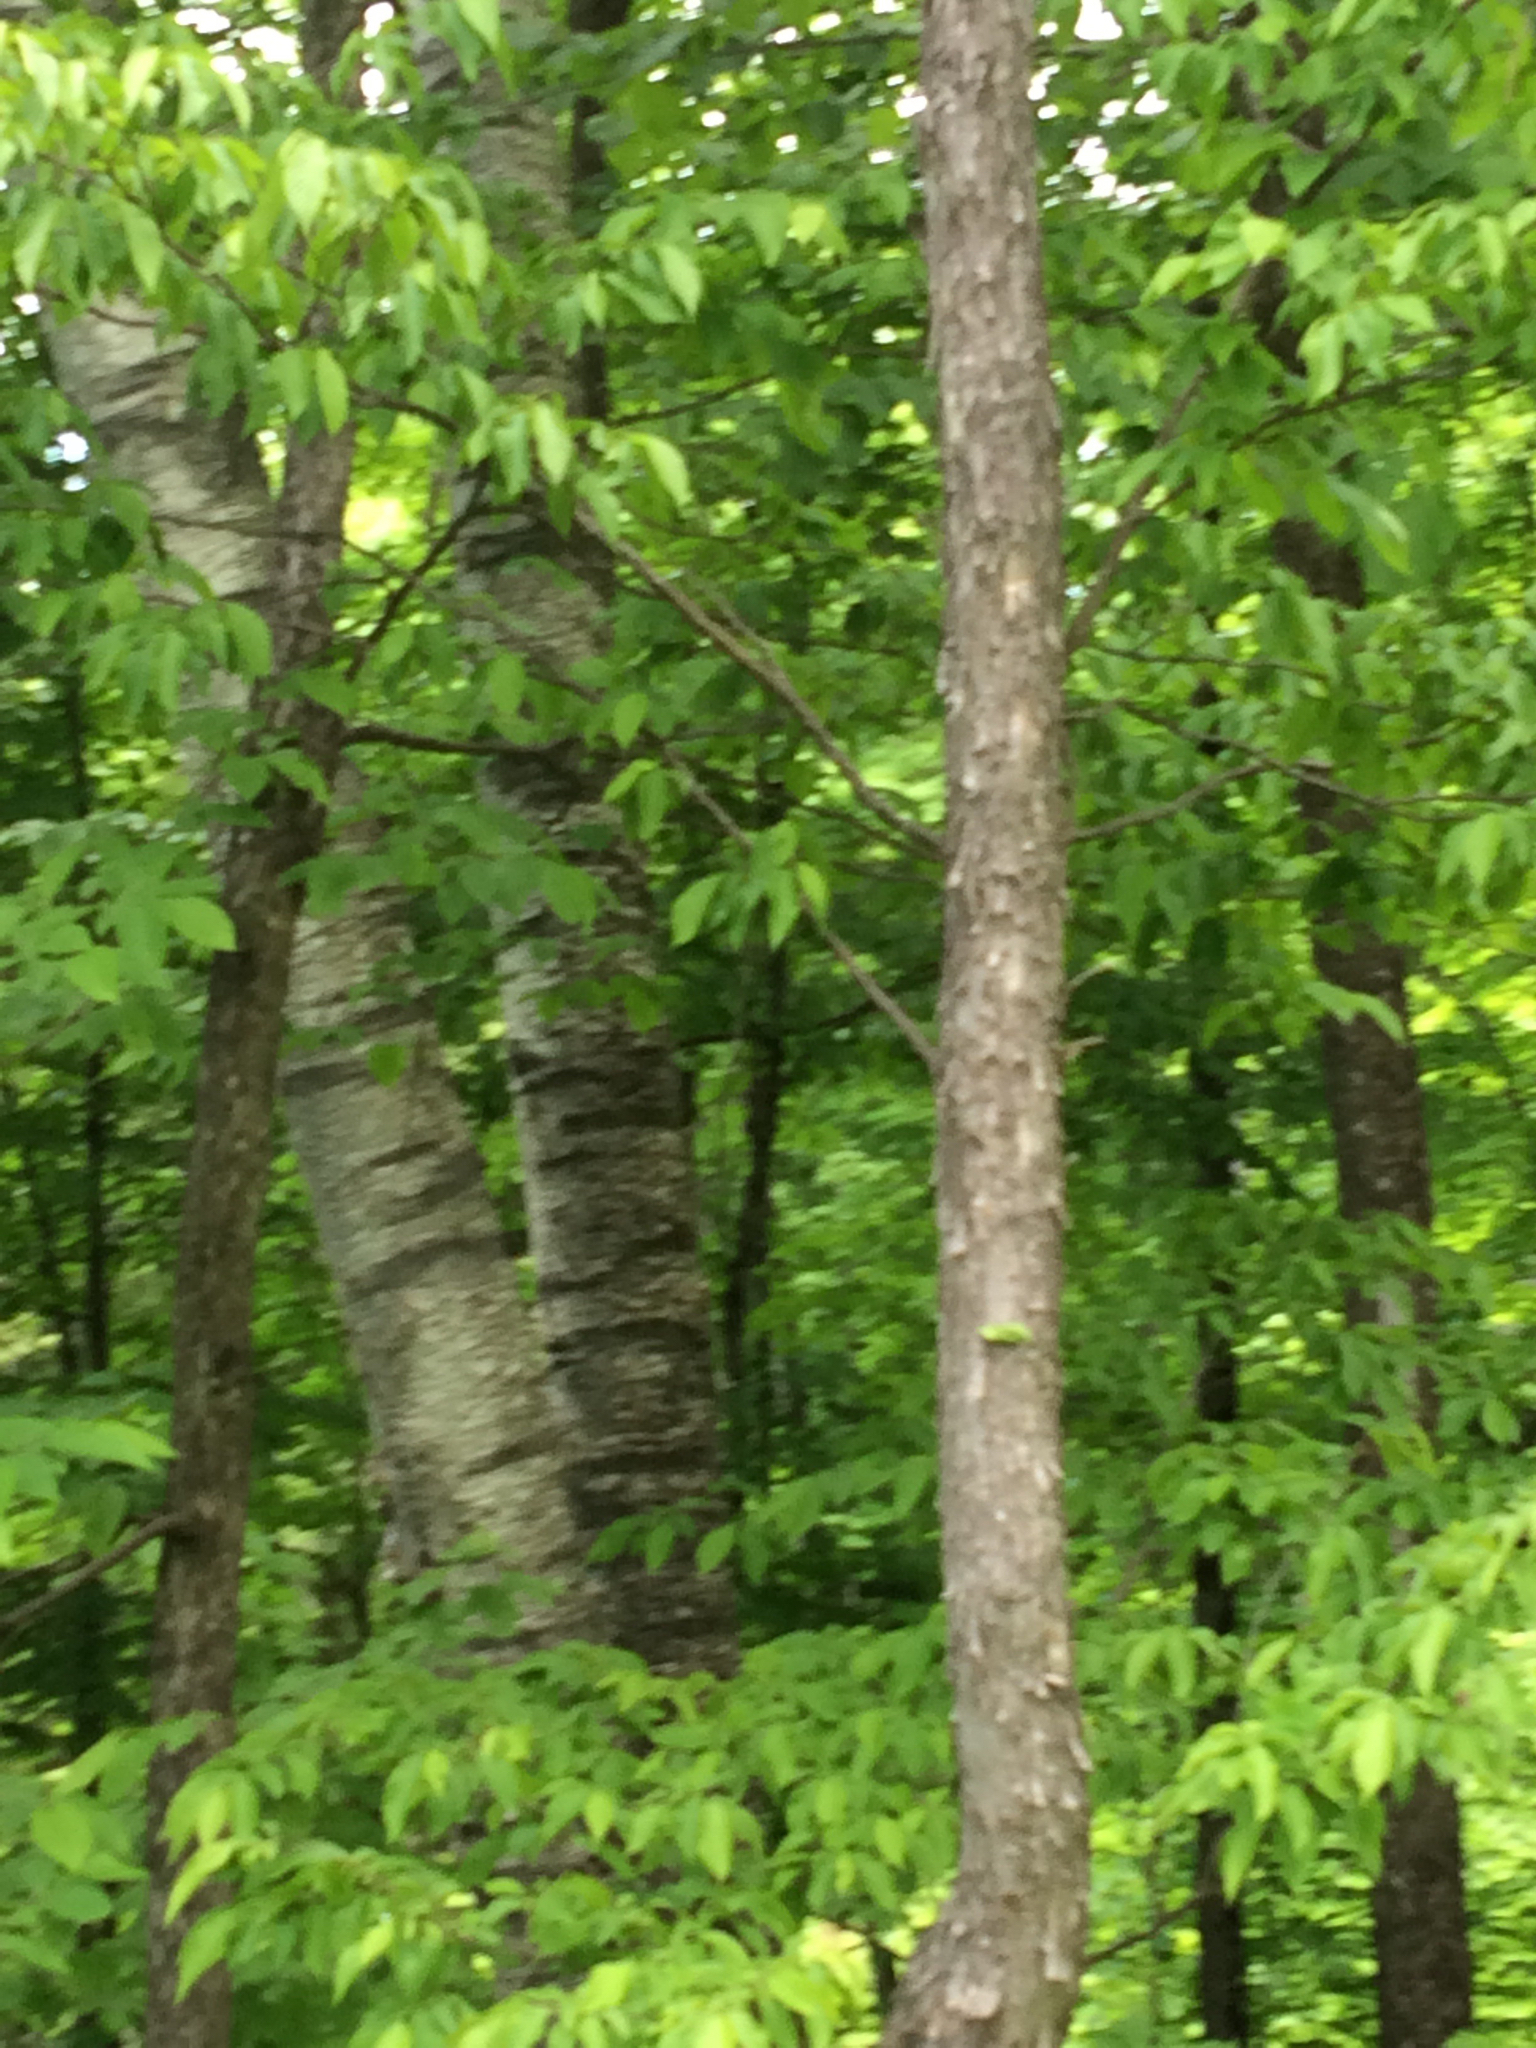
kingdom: Plantae
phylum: Tracheophyta
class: Magnoliopsida
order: Fagales
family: Betulaceae
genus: Ostrya
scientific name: Ostrya virginiana
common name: Ironwood
